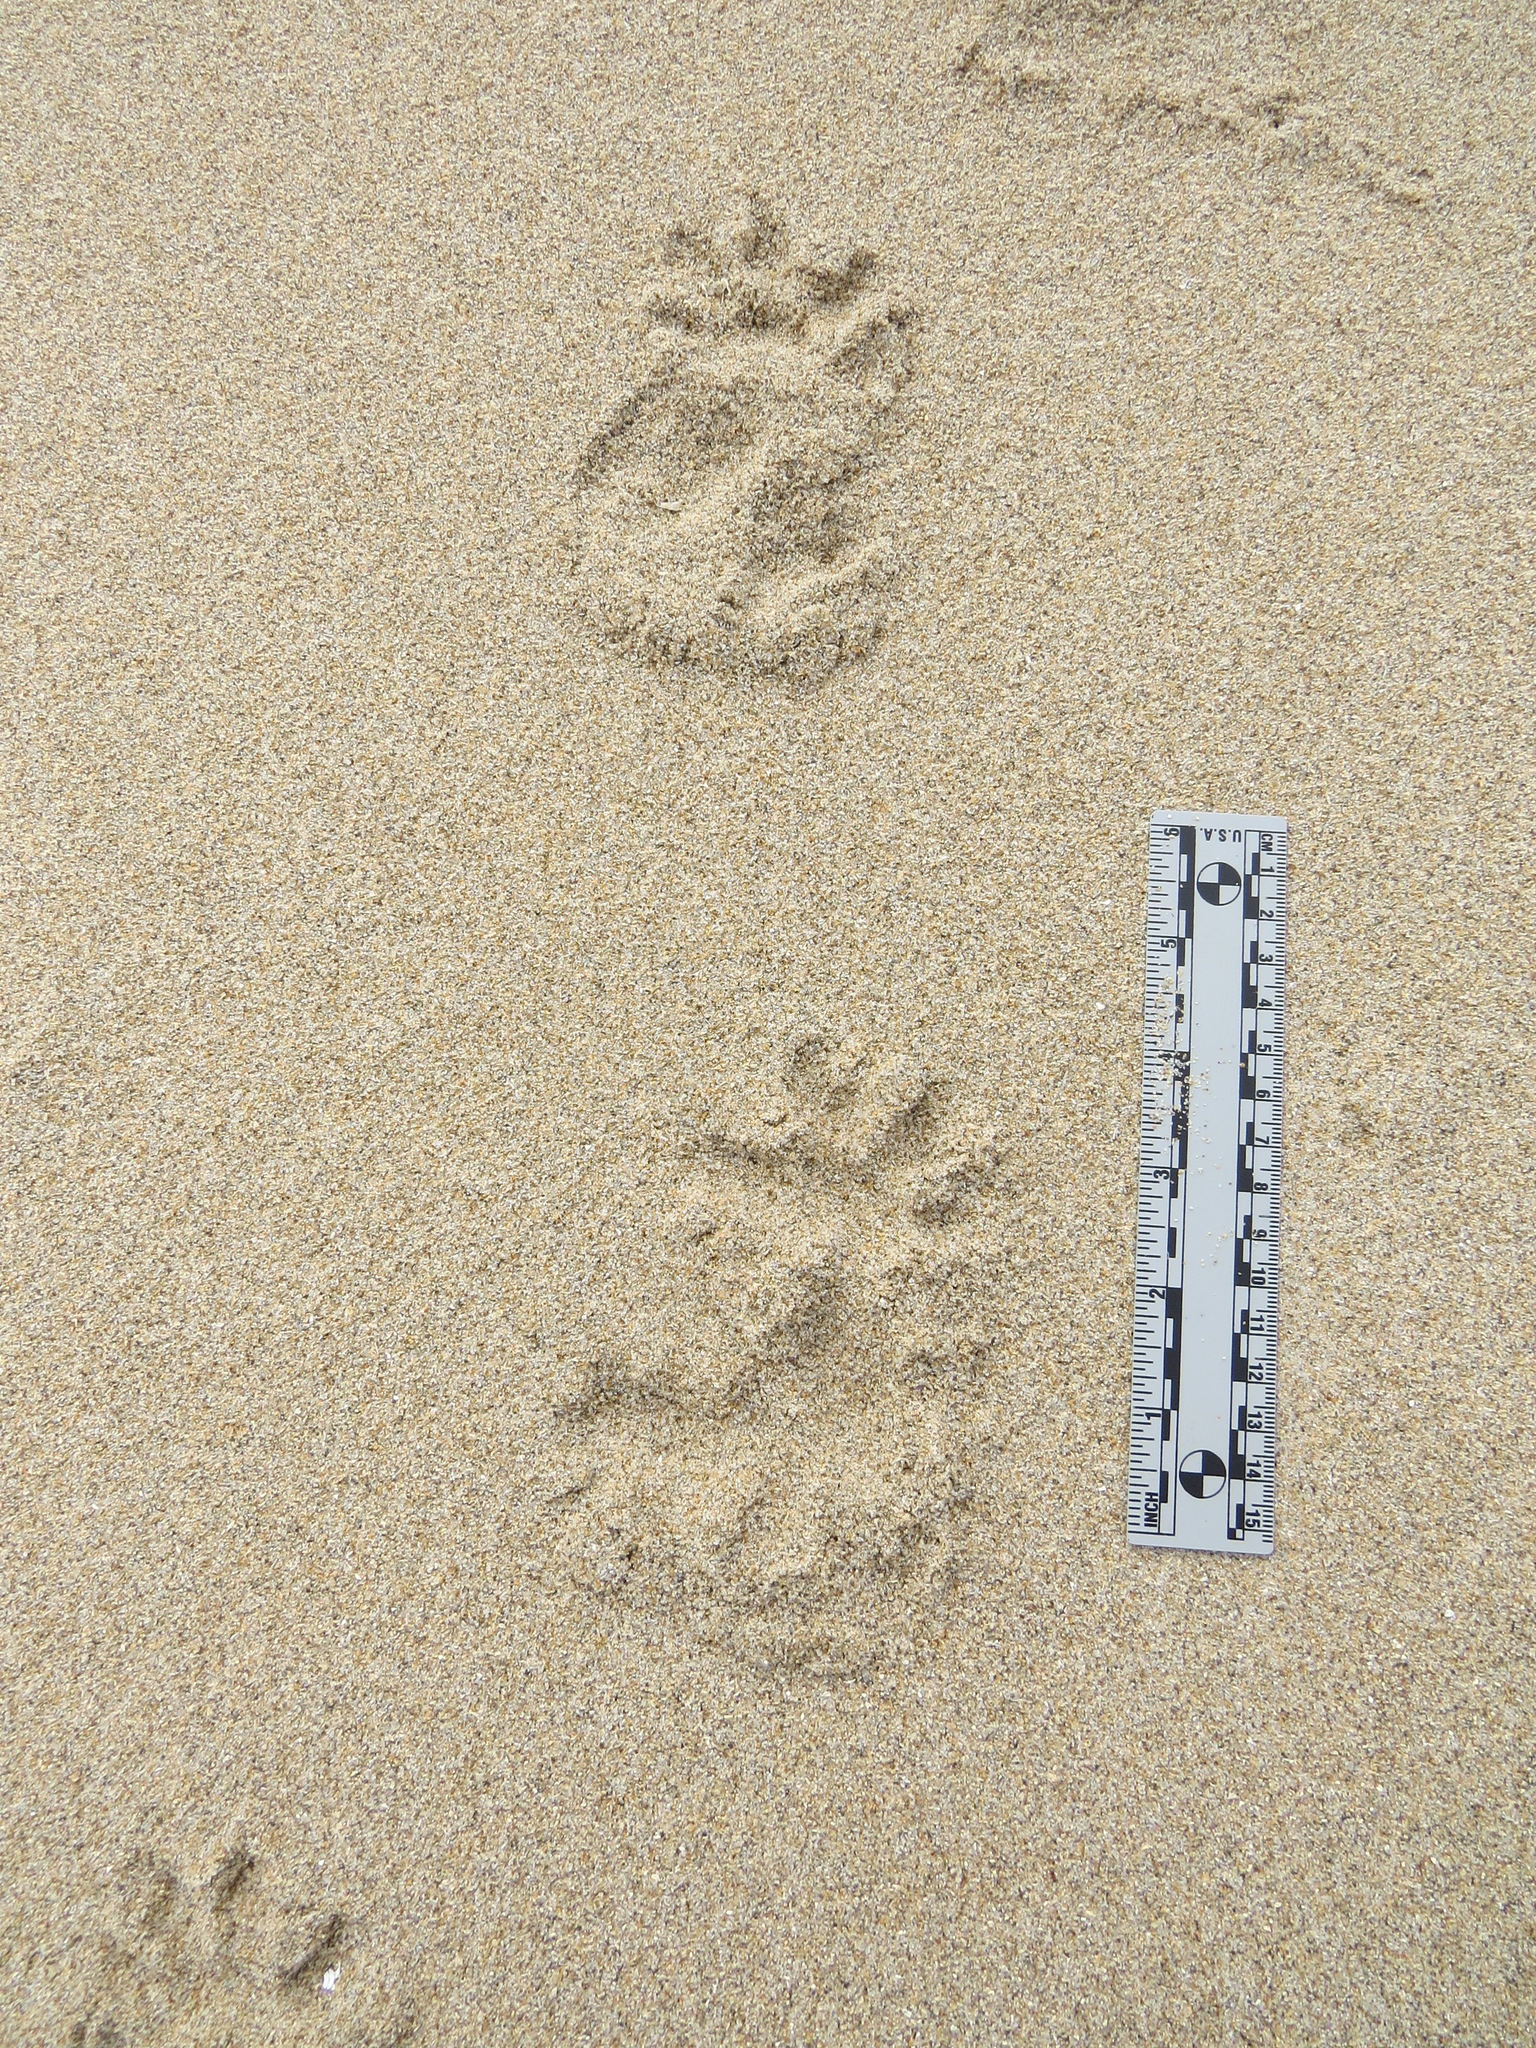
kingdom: Animalia
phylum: Chordata
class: Mammalia
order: Didelphimorphia
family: Didelphidae
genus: Didelphis
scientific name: Didelphis virginiana
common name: Virginia opossum
